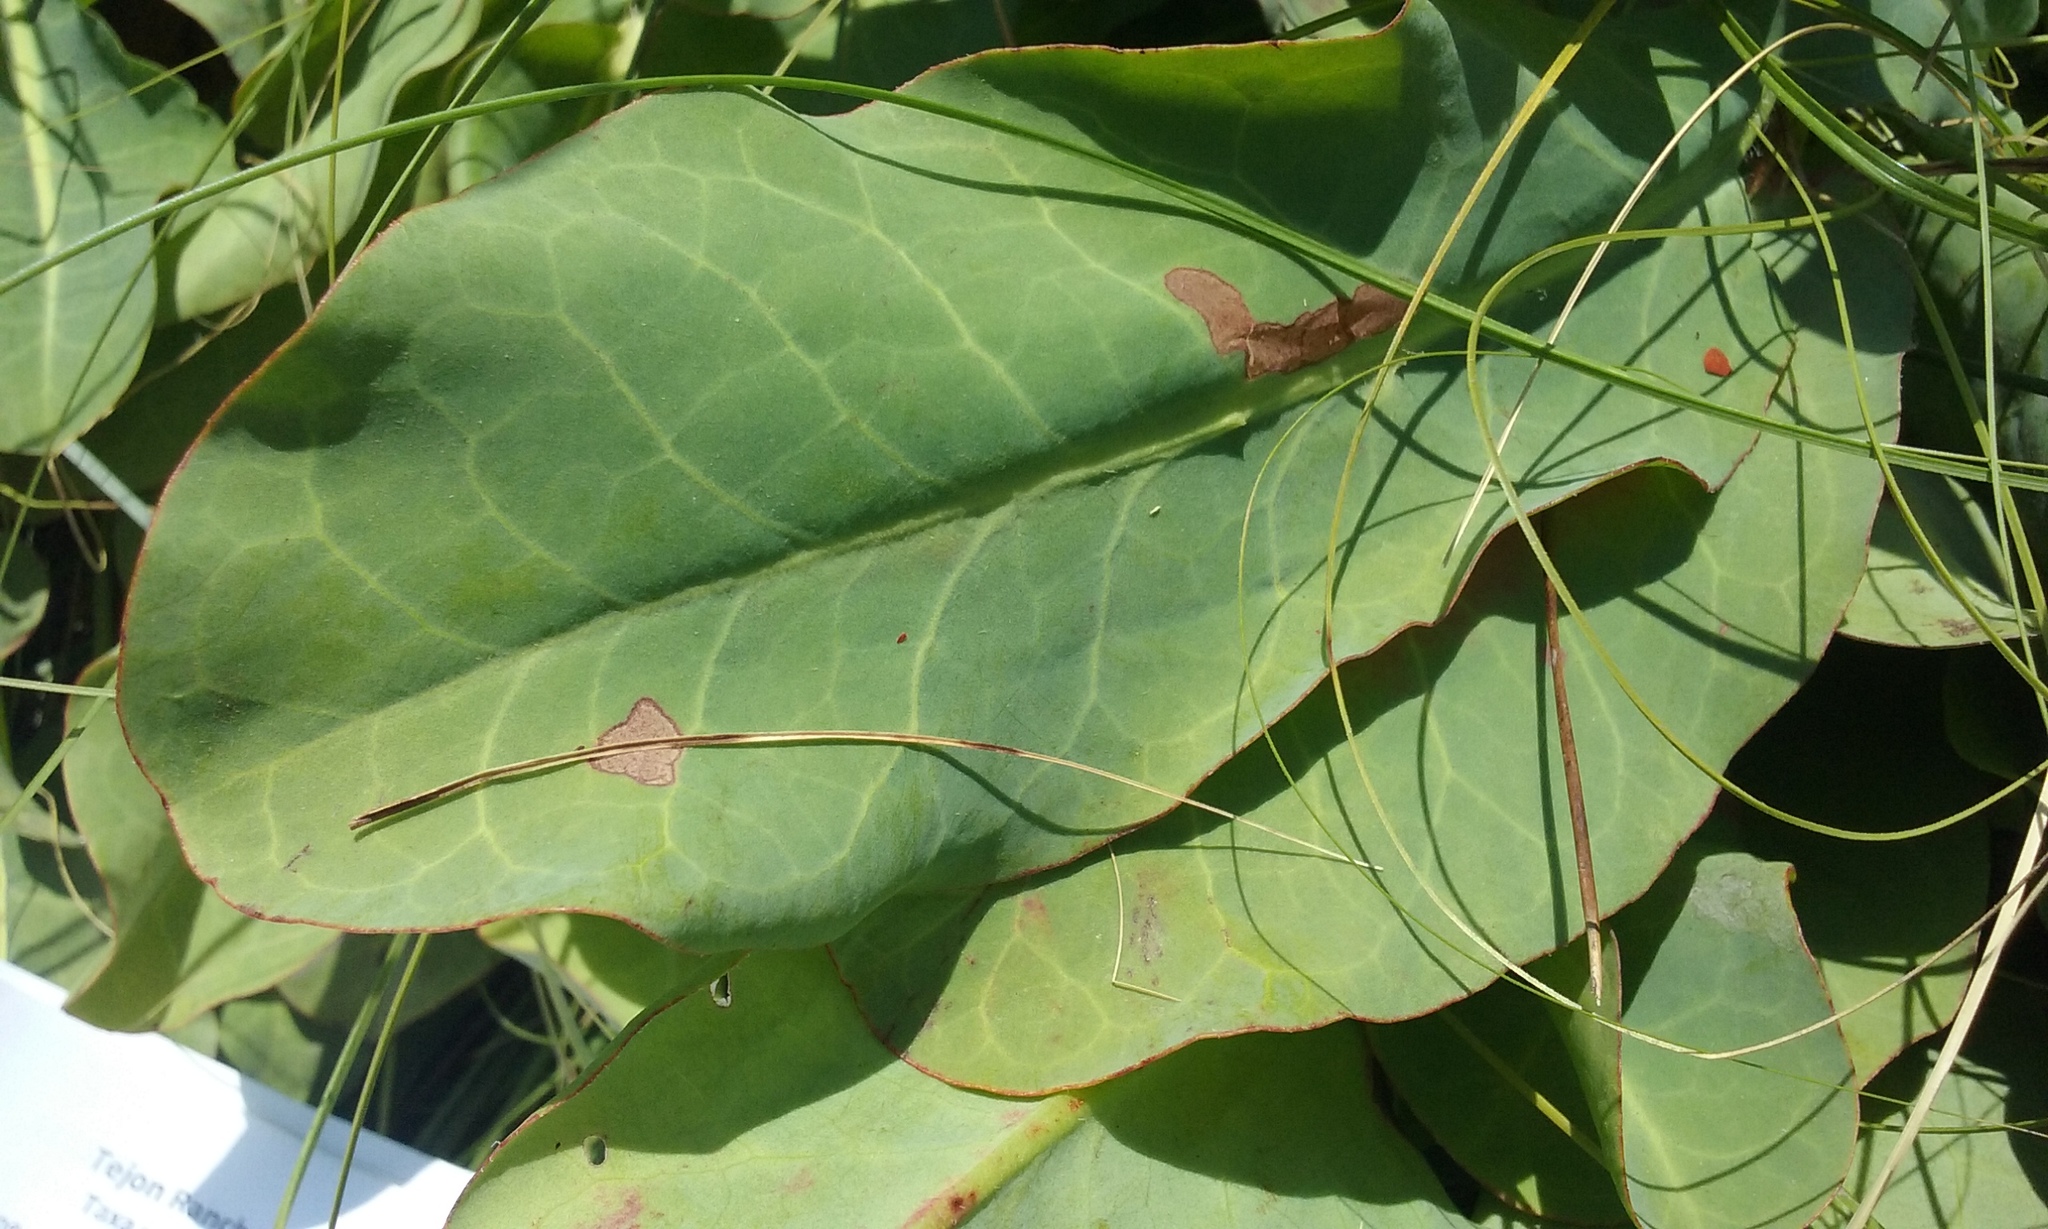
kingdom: Plantae
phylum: Tracheophyta
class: Magnoliopsida
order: Piperales
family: Saururaceae
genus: Anemopsis
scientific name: Anemopsis californica
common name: Apache-beads
